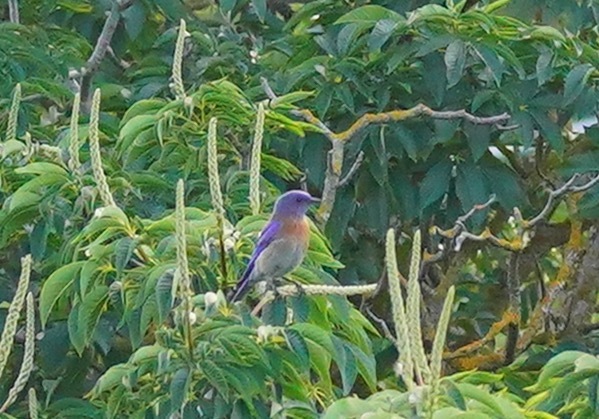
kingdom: Animalia
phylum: Chordata
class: Aves
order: Passeriformes
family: Turdidae
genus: Sialia
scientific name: Sialia mexicana
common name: Western bluebird
